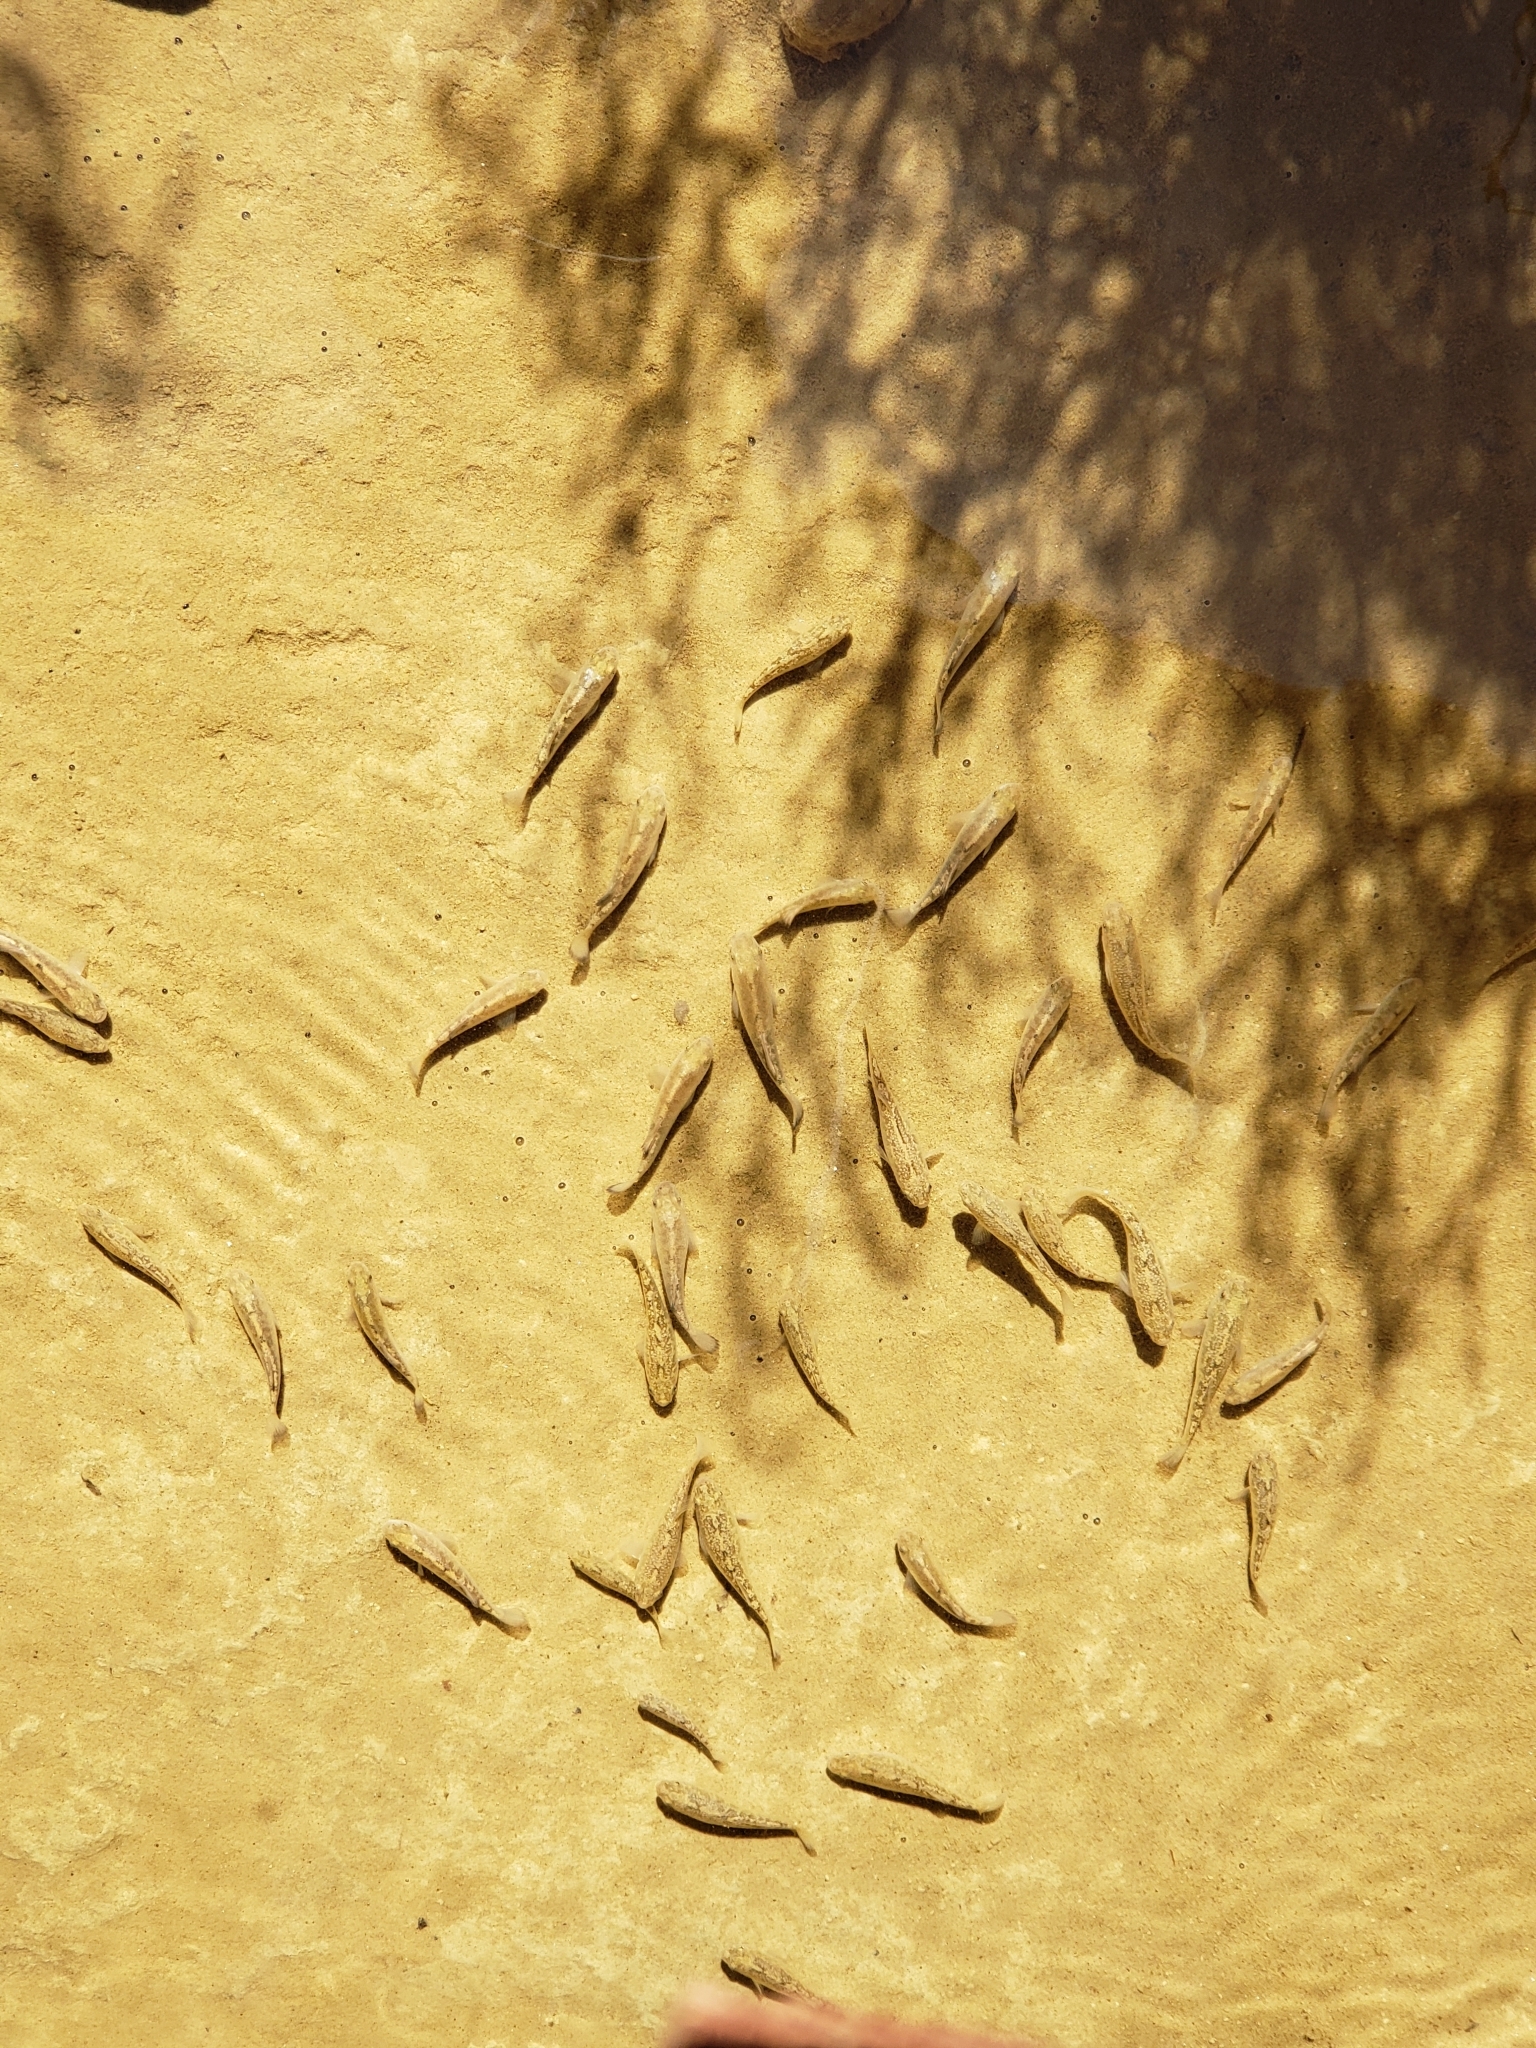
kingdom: Animalia
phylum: Chordata
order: Cyprinodontiformes
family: Cyprinodontidae
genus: Cyprinodon
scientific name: Cyprinodon salinus
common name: Cottonball marsh pupfish
